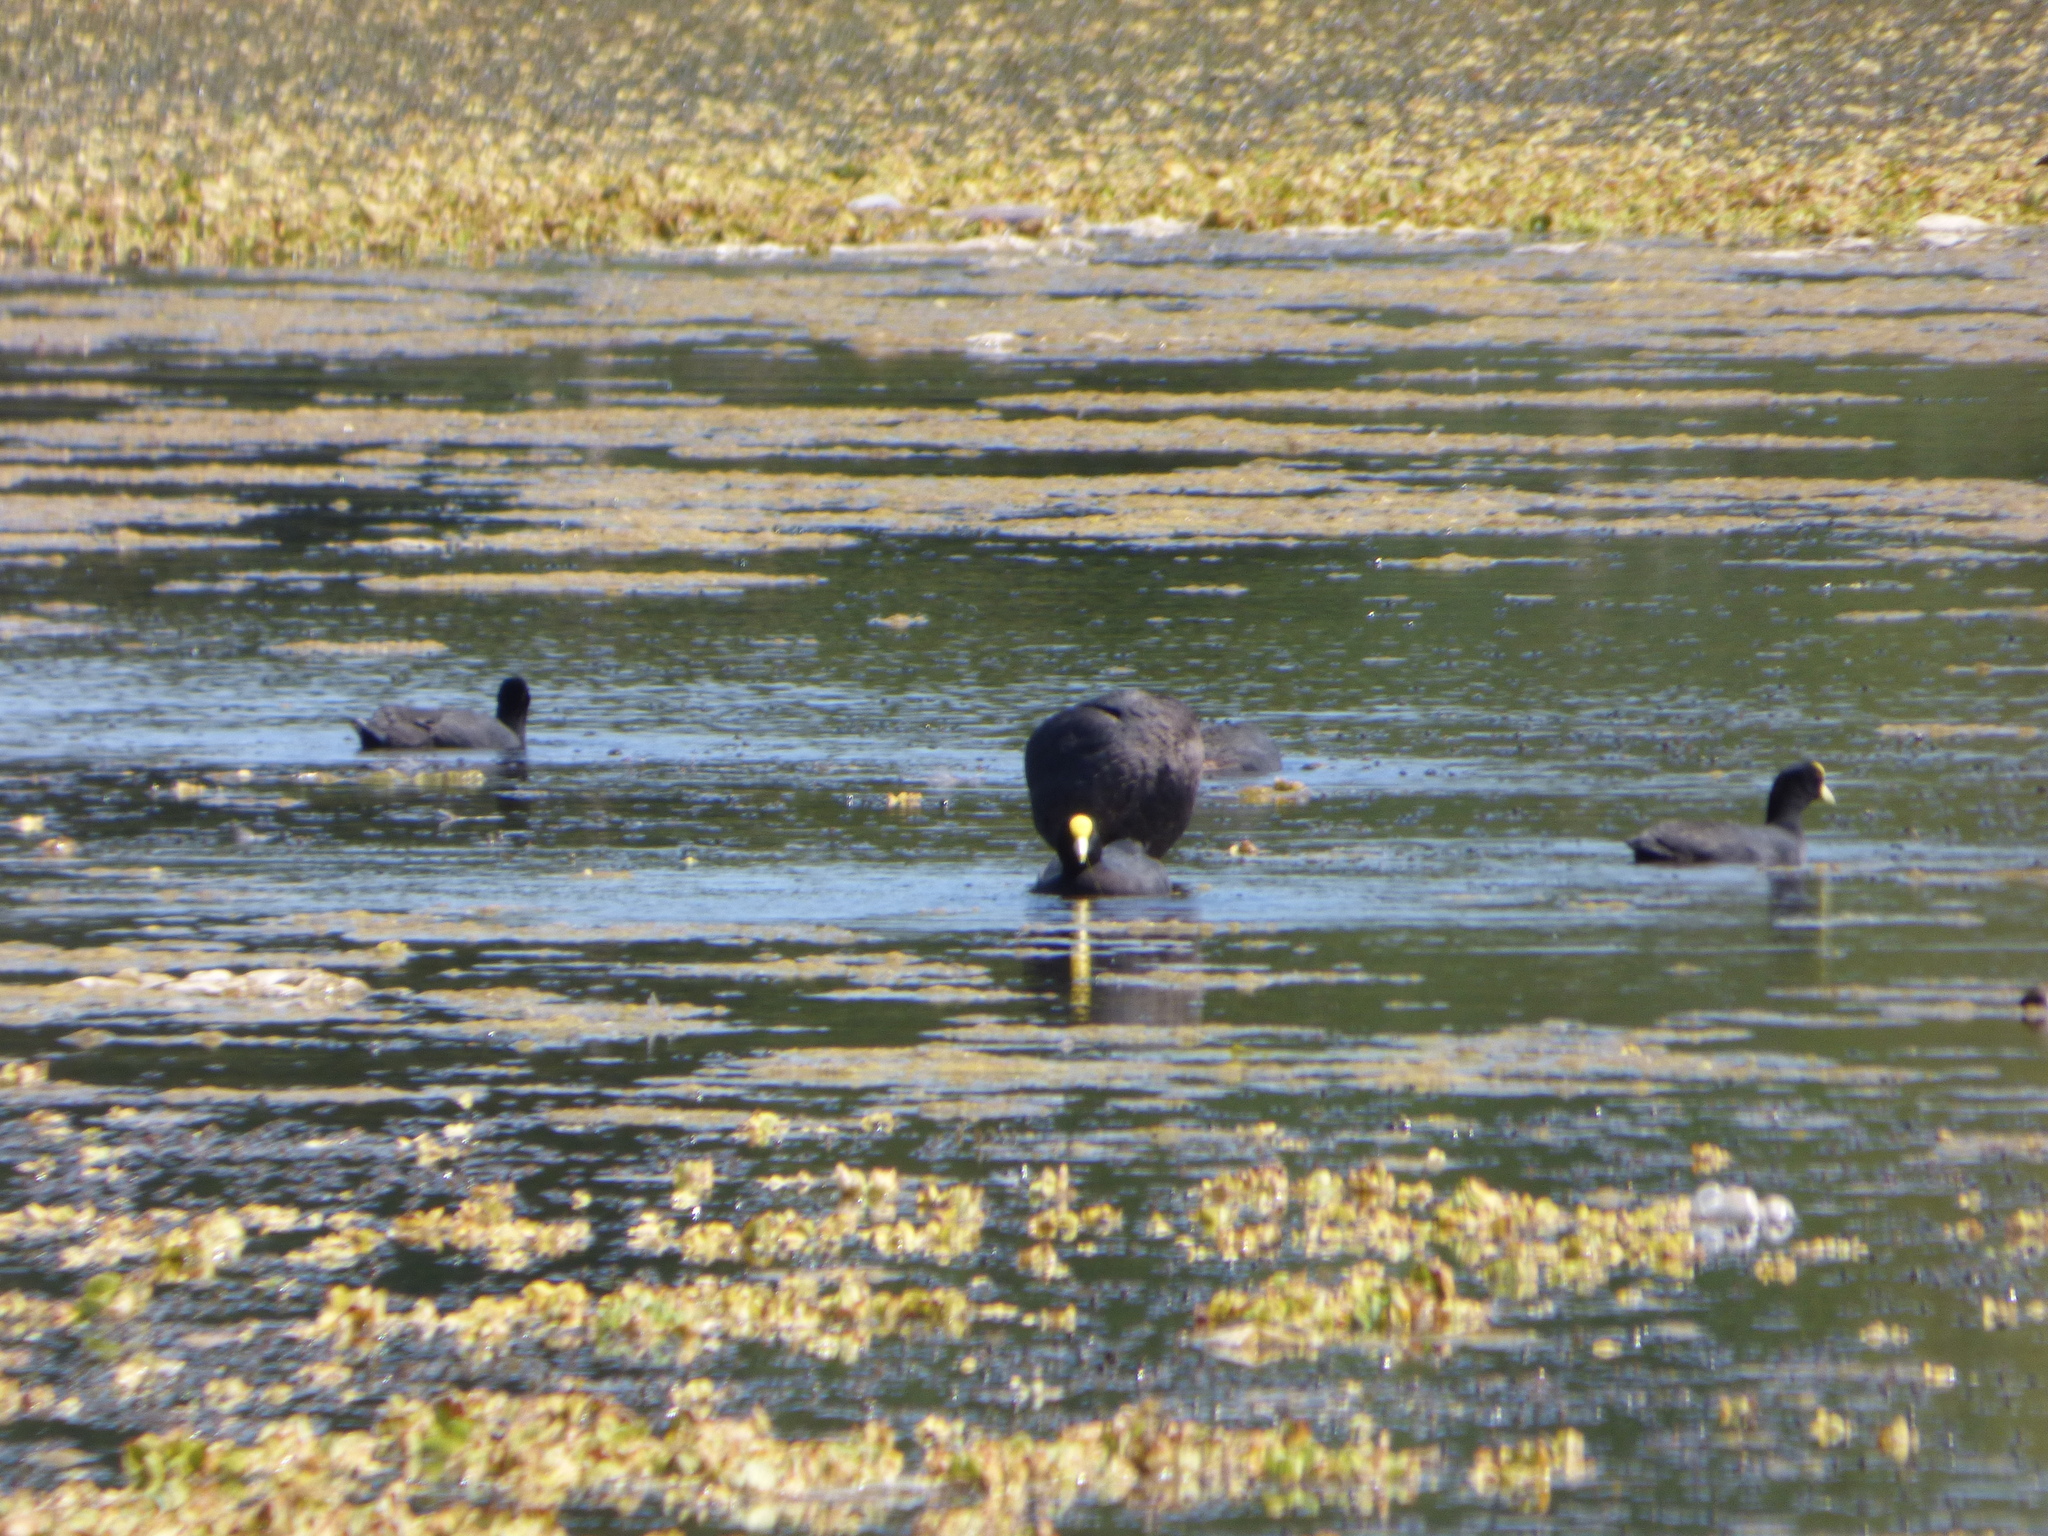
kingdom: Animalia
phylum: Chordata
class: Aves
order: Gruiformes
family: Rallidae
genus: Fulica
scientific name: Fulica leucoptera
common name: White-winged coot
